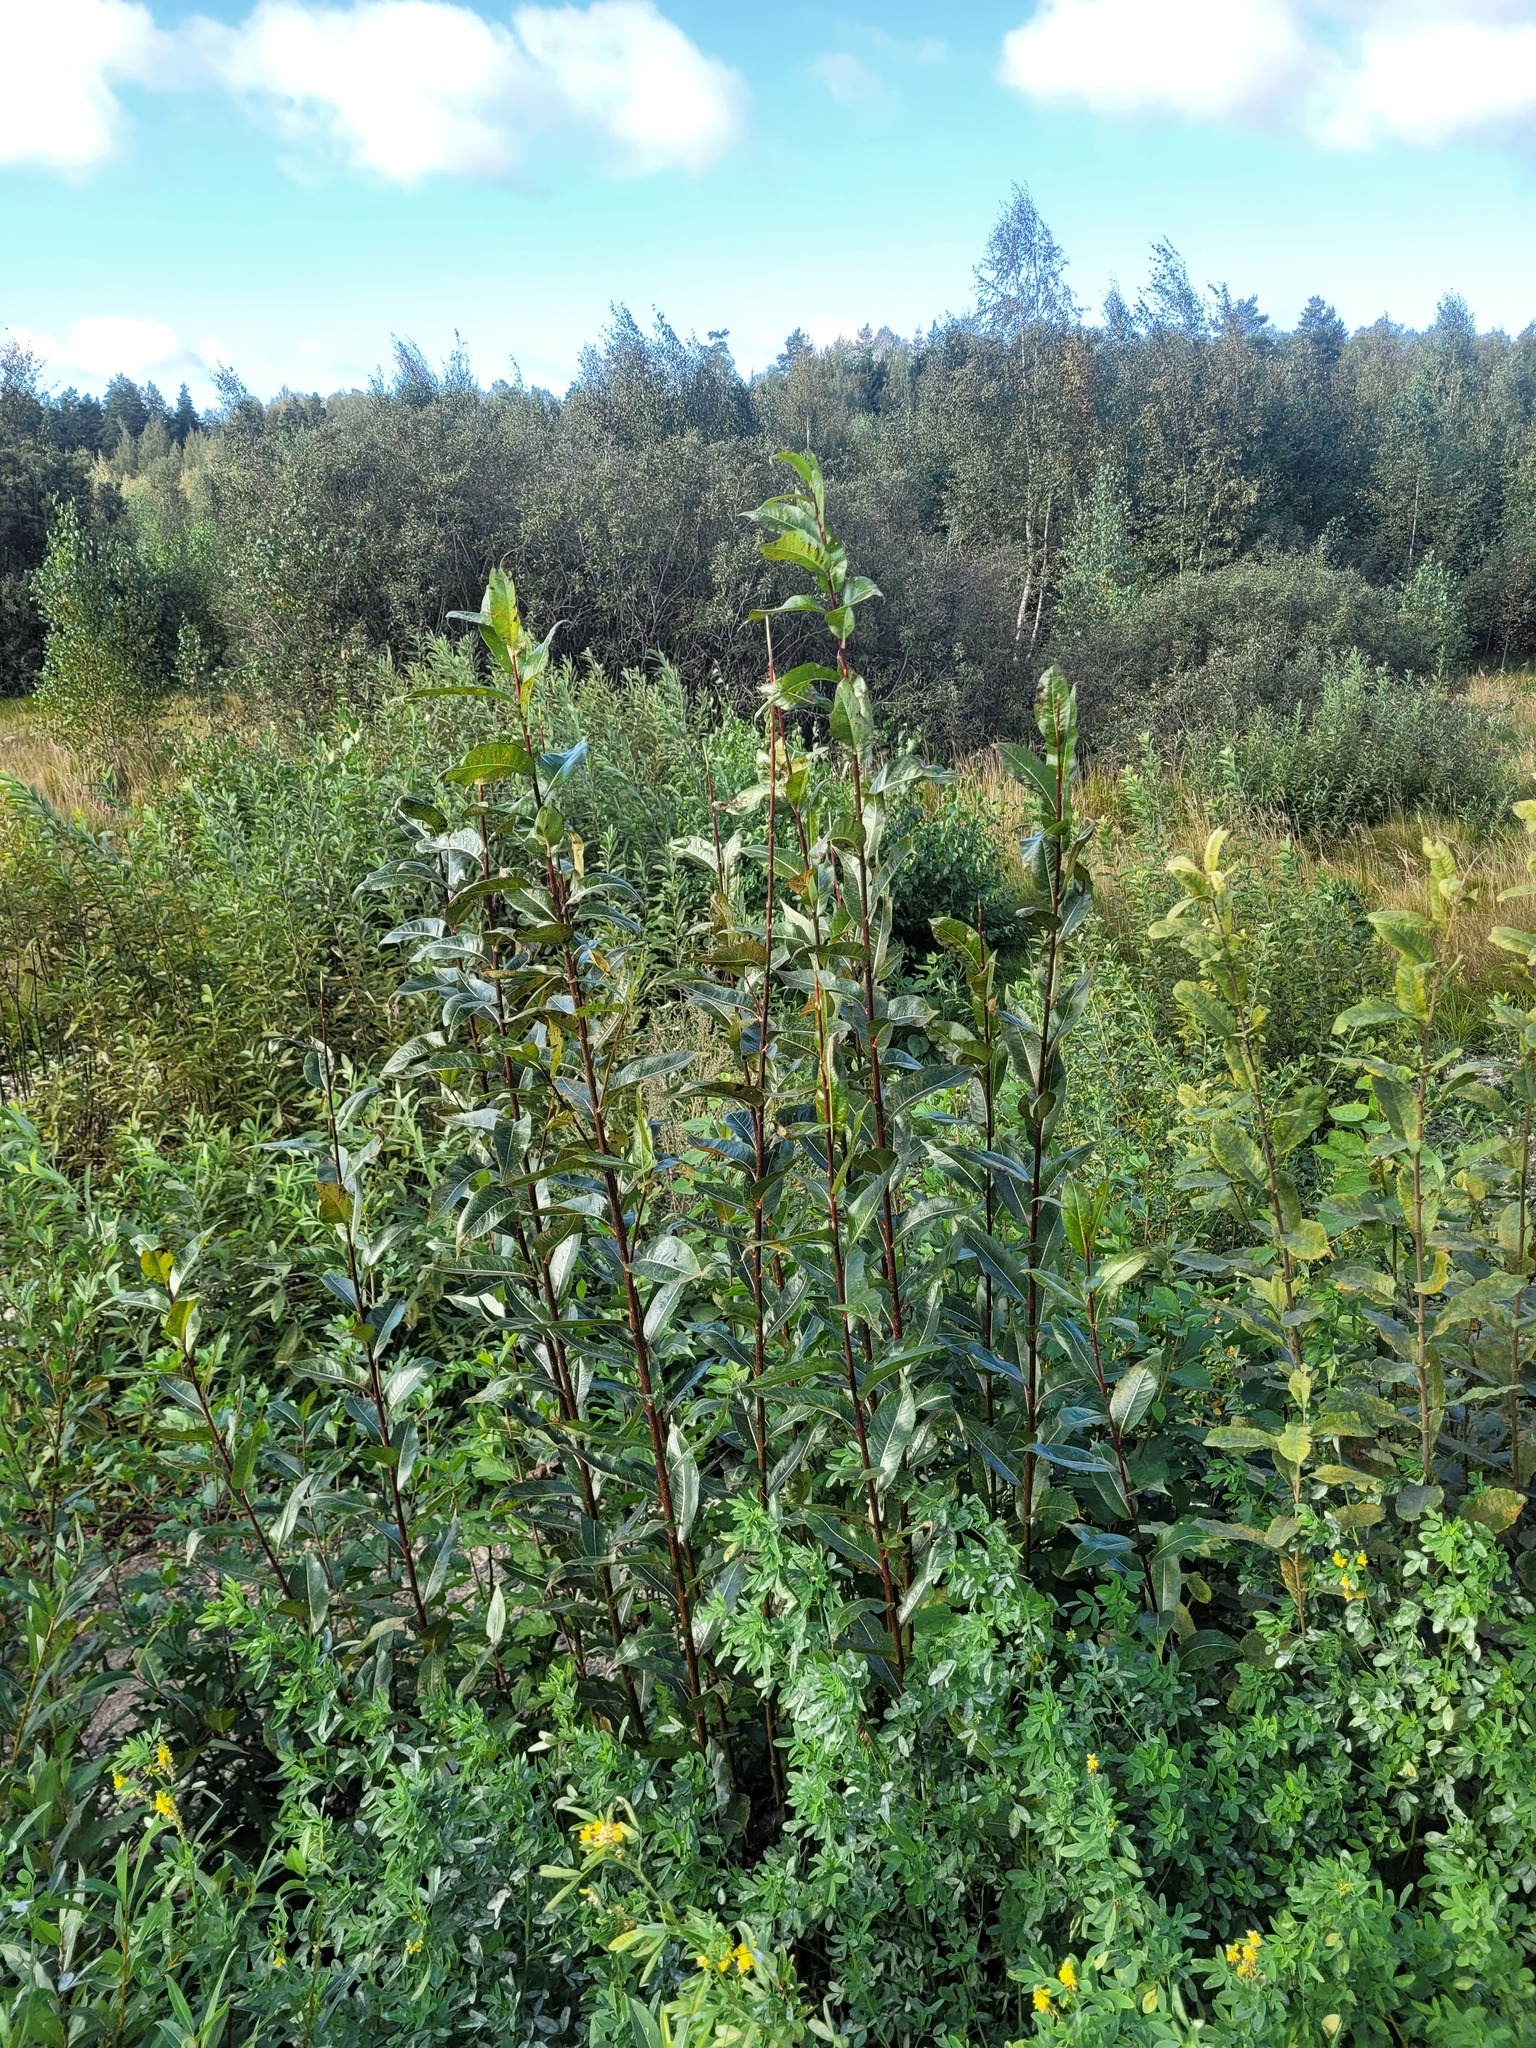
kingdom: Plantae
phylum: Tracheophyta
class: Magnoliopsida
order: Malpighiales
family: Salicaceae
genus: Salix
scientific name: Salix pentandra
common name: Bay willow
